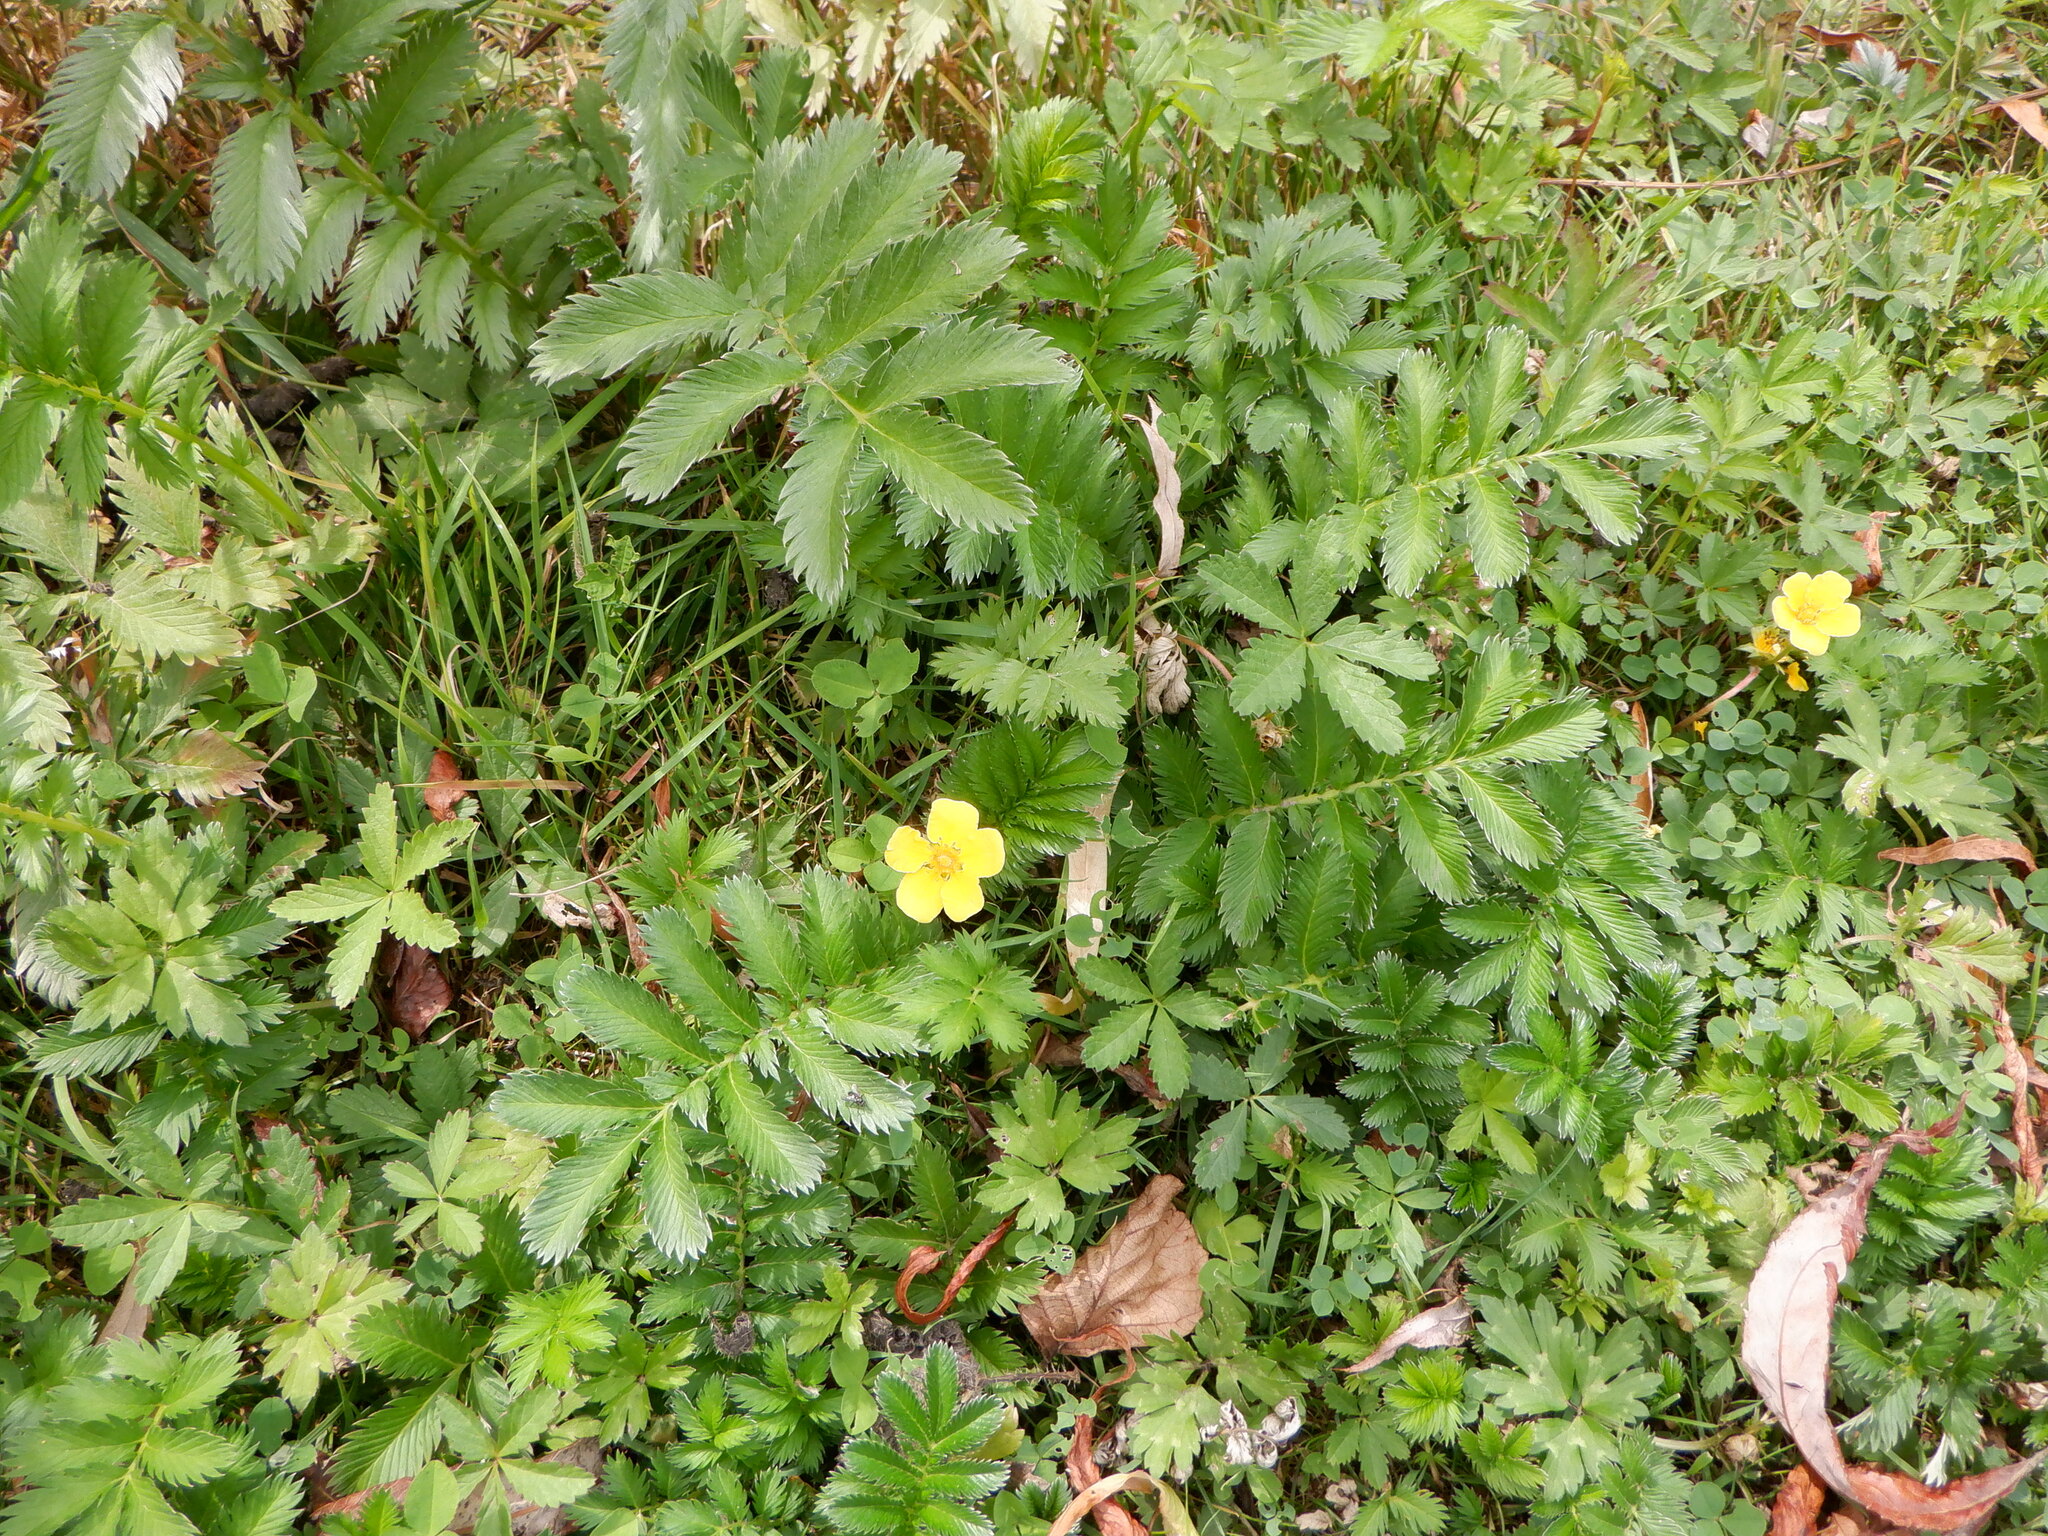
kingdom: Plantae
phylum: Tracheophyta
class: Magnoliopsida
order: Rosales
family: Rosaceae
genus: Argentina
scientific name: Argentina anserina
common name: Common silverweed
